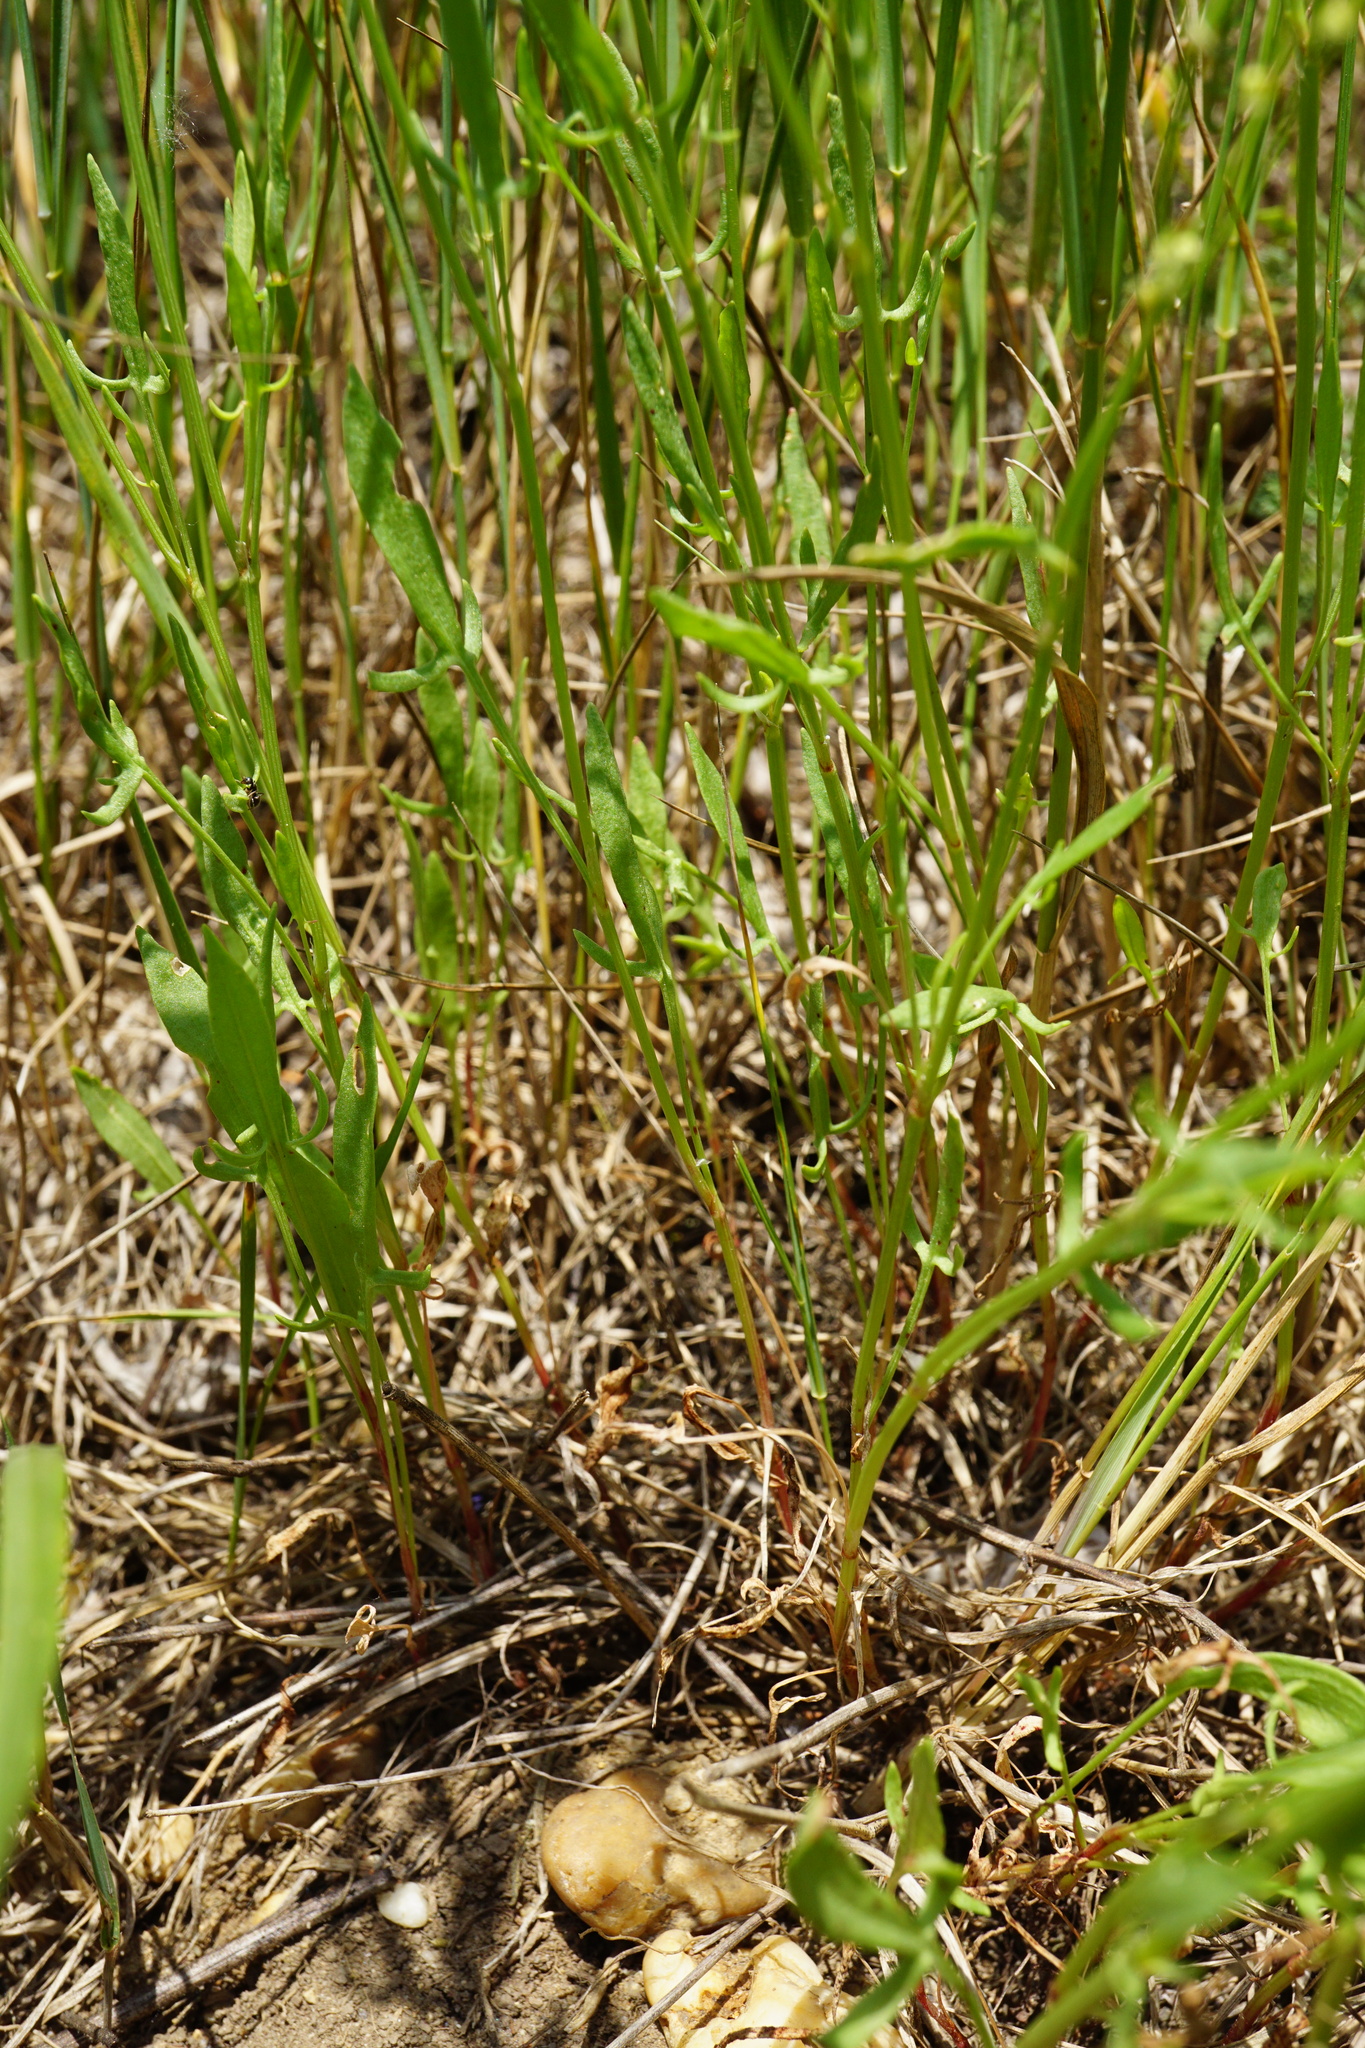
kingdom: Plantae
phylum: Tracheophyta
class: Magnoliopsida
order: Caryophyllales
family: Polygonaceae
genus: Rumex
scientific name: Rumex acetosella
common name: Common sheep sorrel
